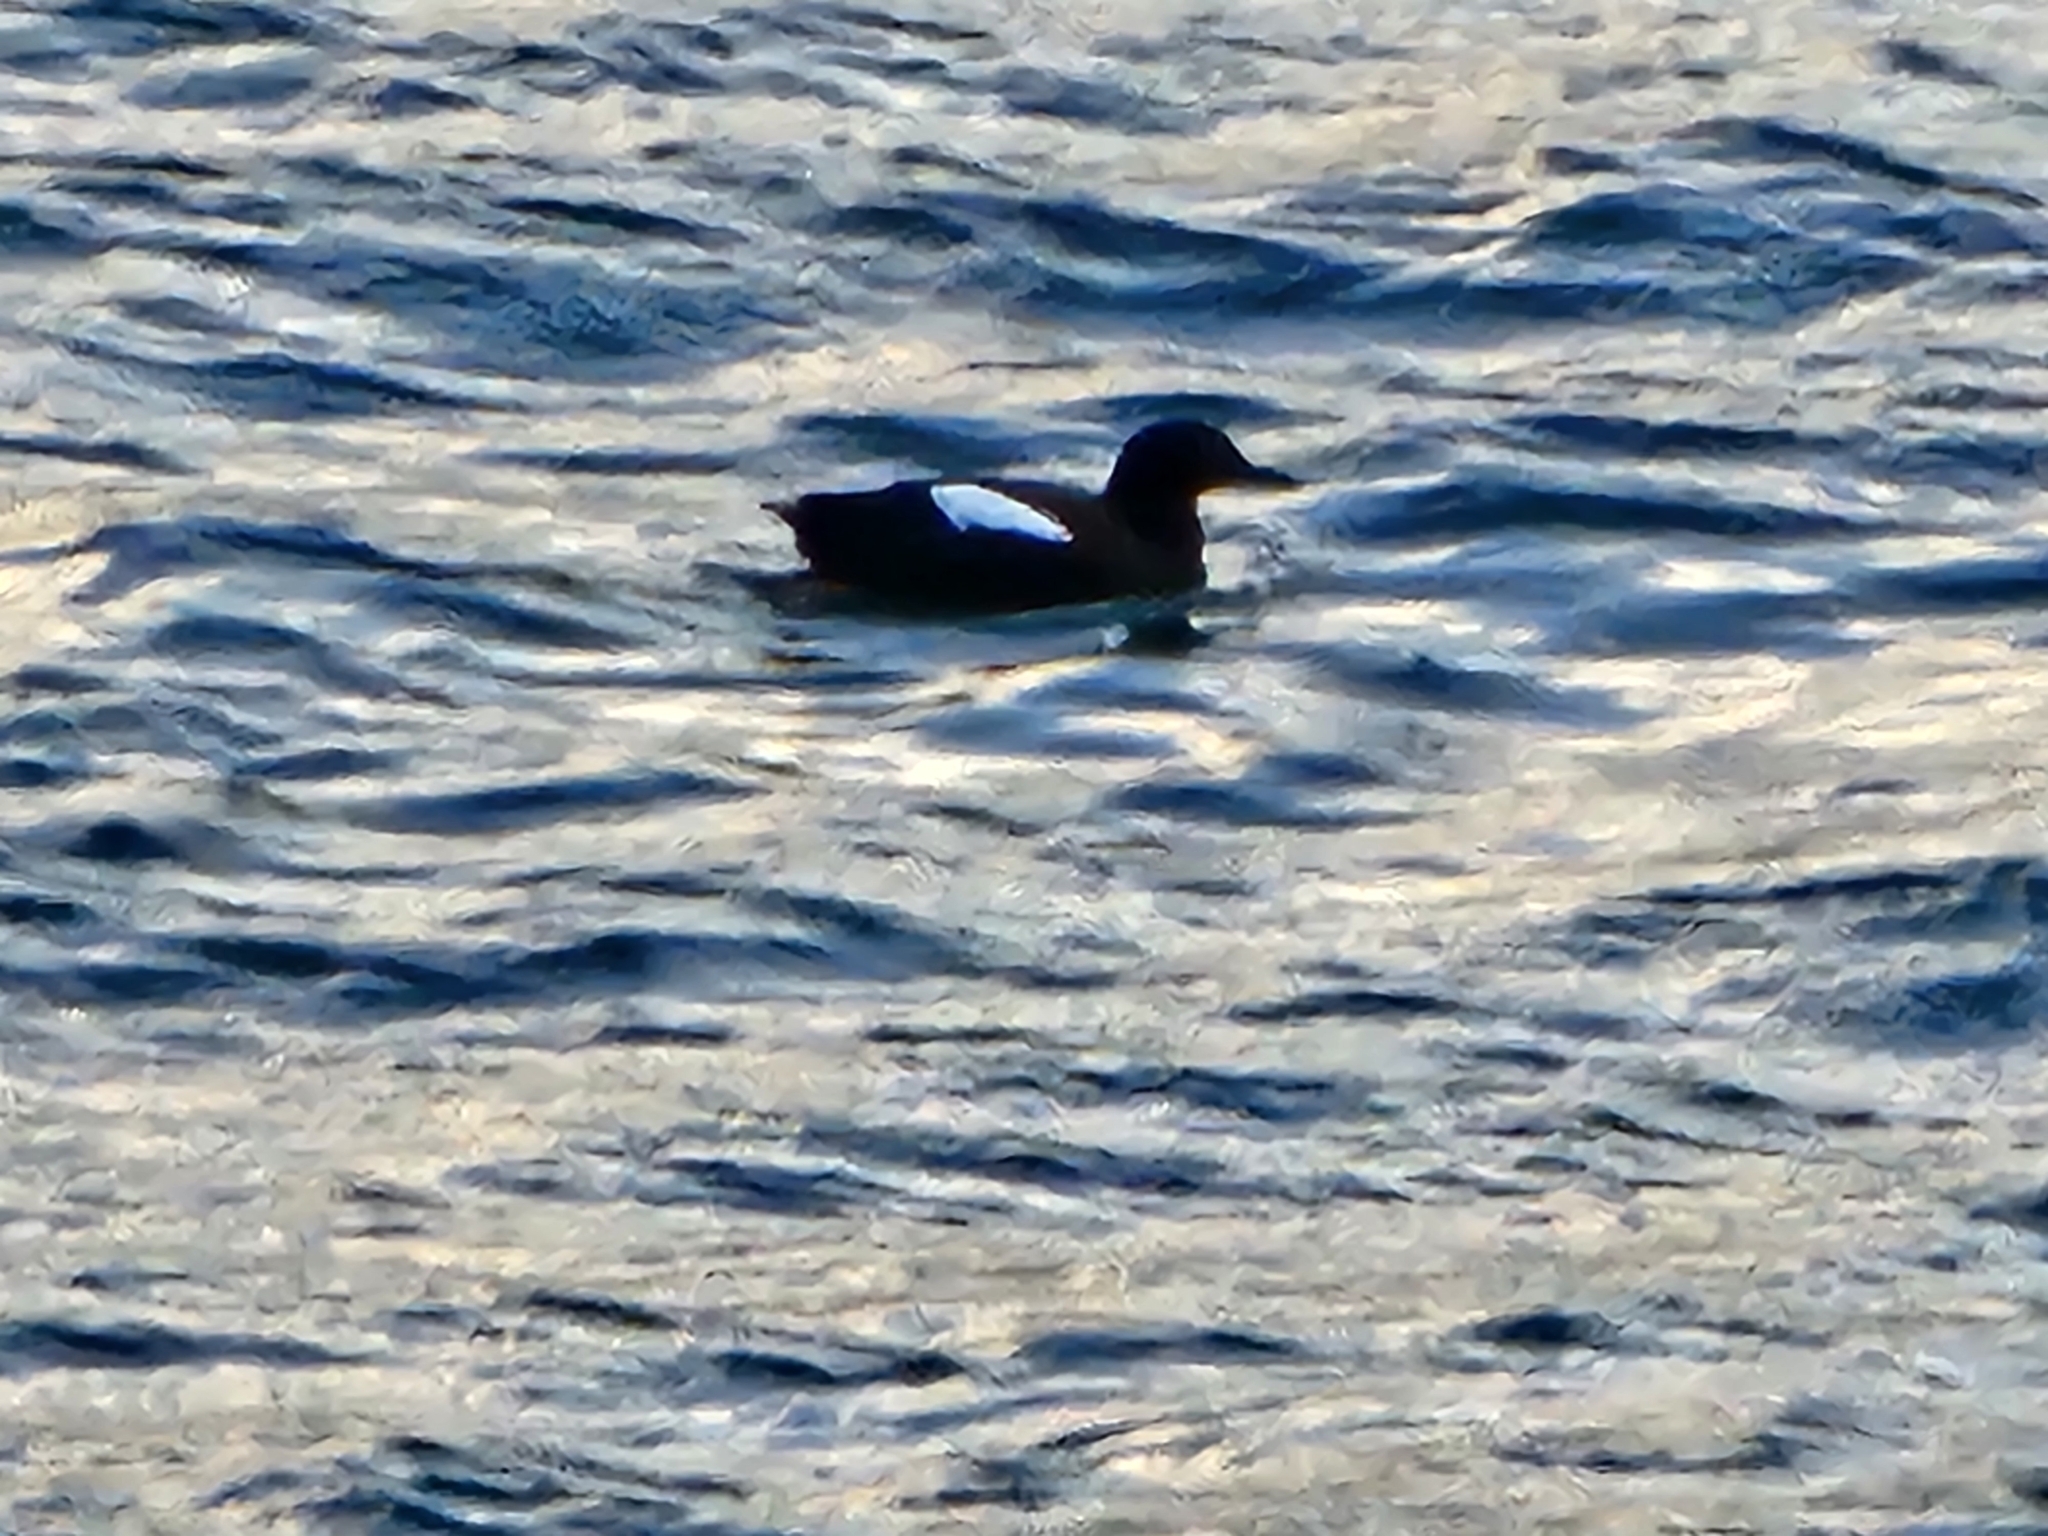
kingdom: Animalia
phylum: Chordata
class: Aves
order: Charadriiformes
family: Alcidae
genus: Cepphus
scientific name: Cepphus columba
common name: Pigeon guillemot
